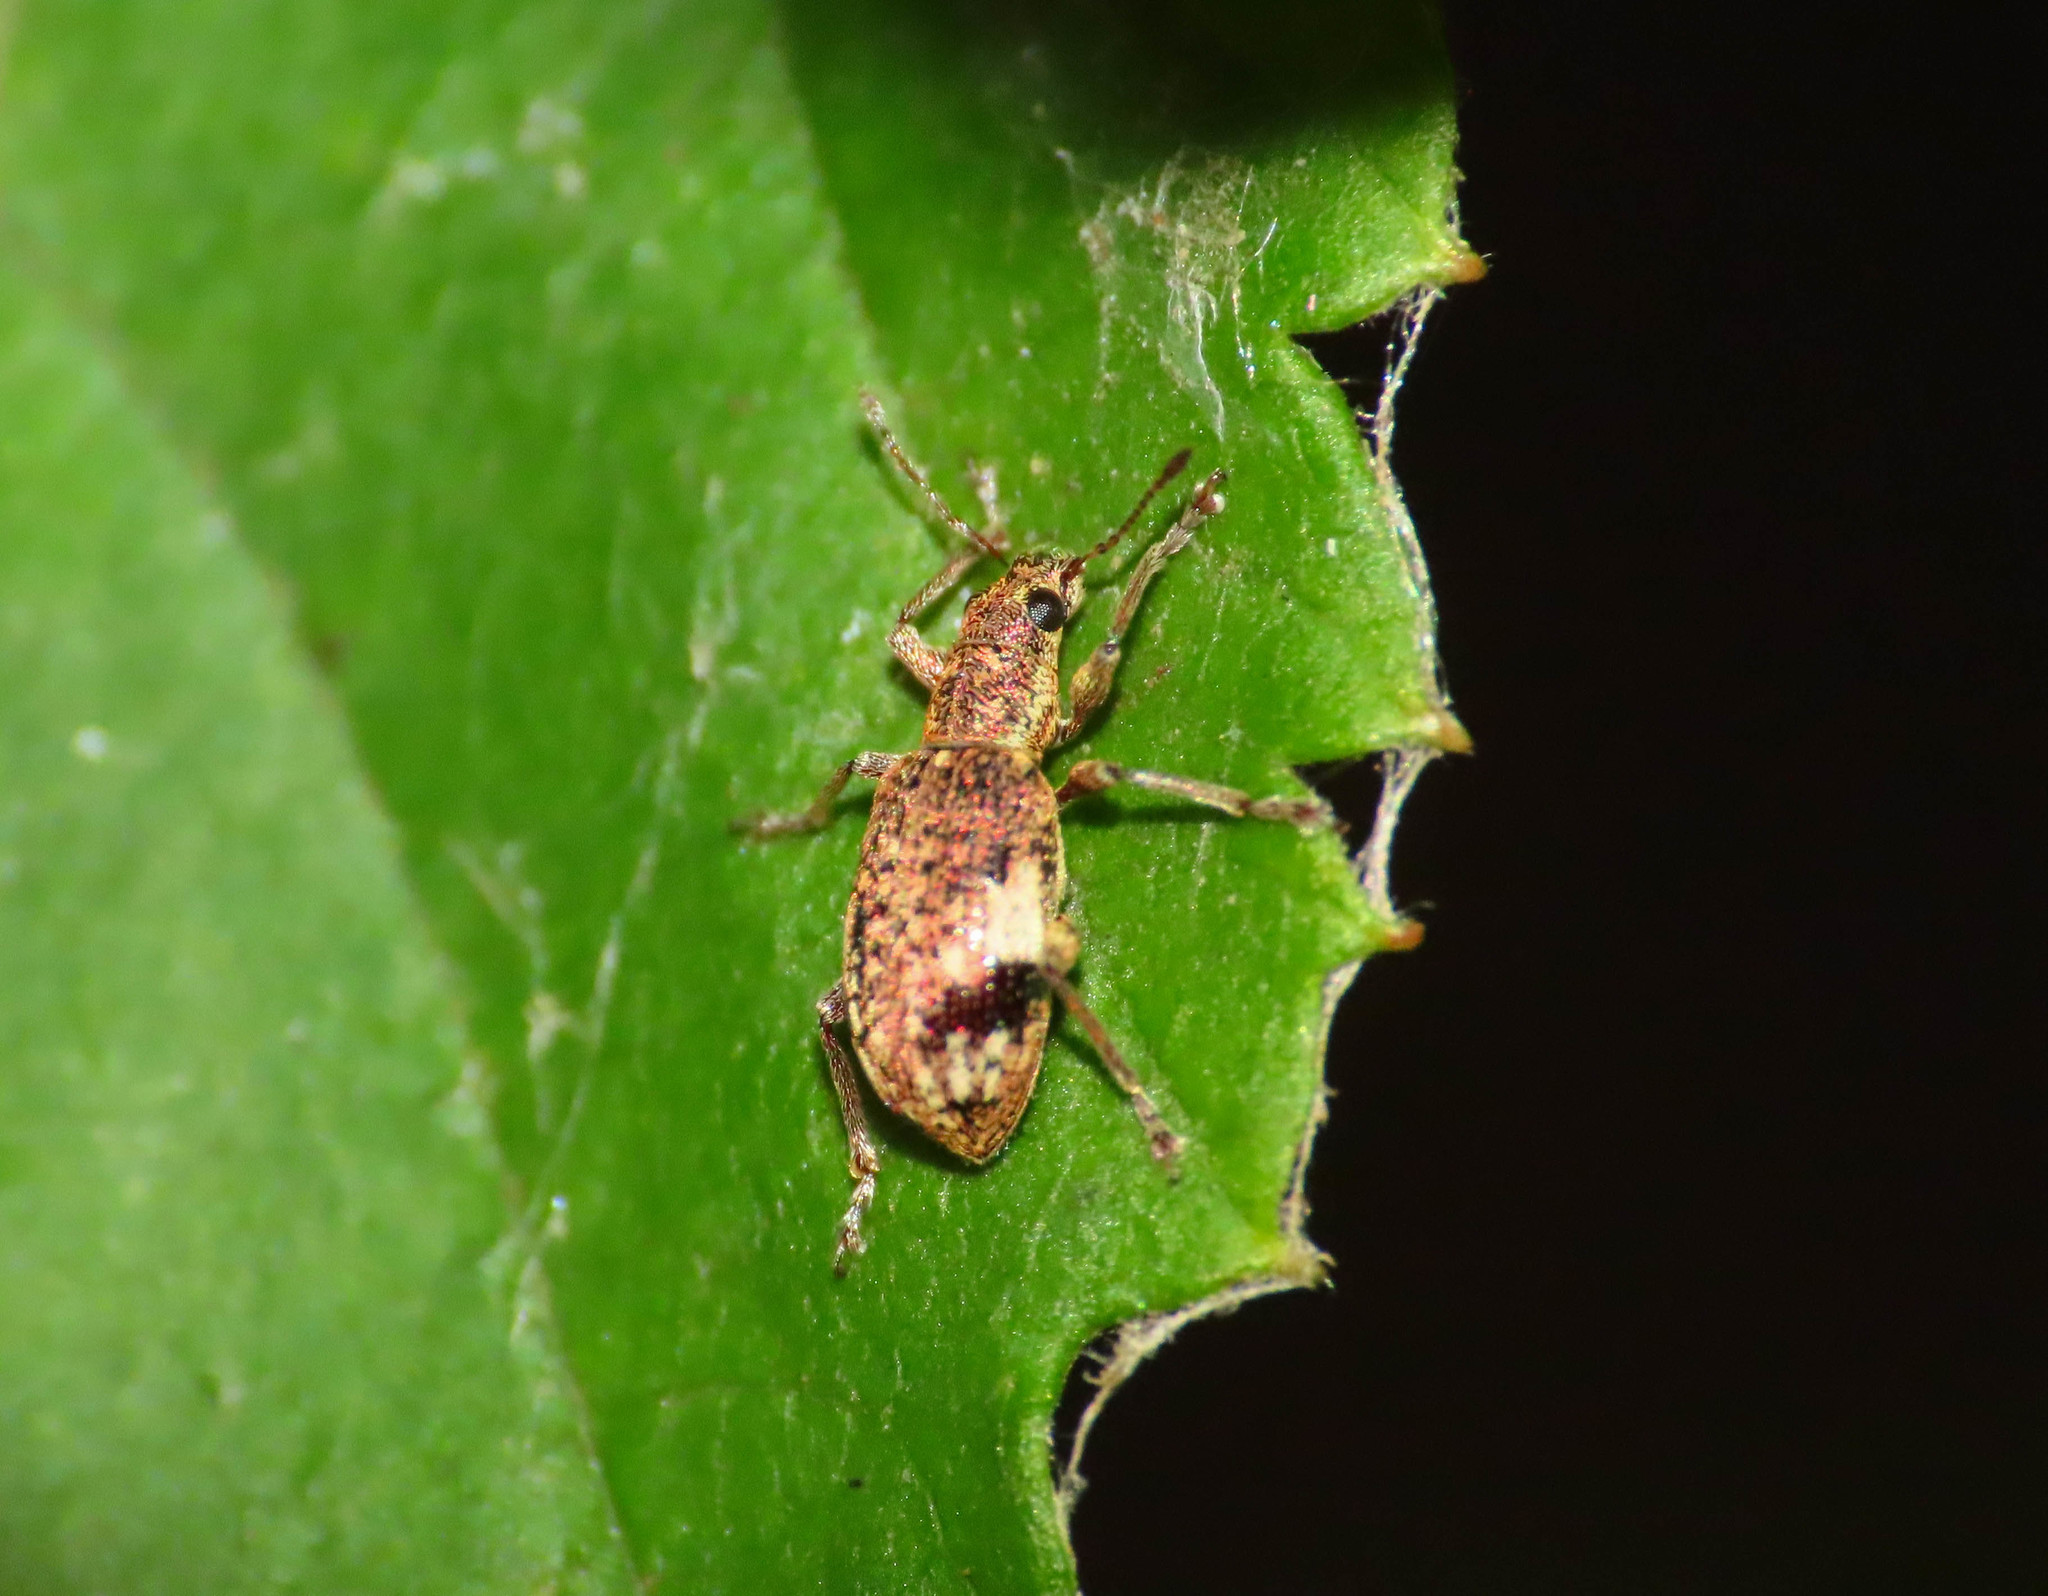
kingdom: Animalia
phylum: Arthropoda
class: Insecta
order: Coleoptera
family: Curculionidae
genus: Polydrusus
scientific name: Polydrusus sparsus
